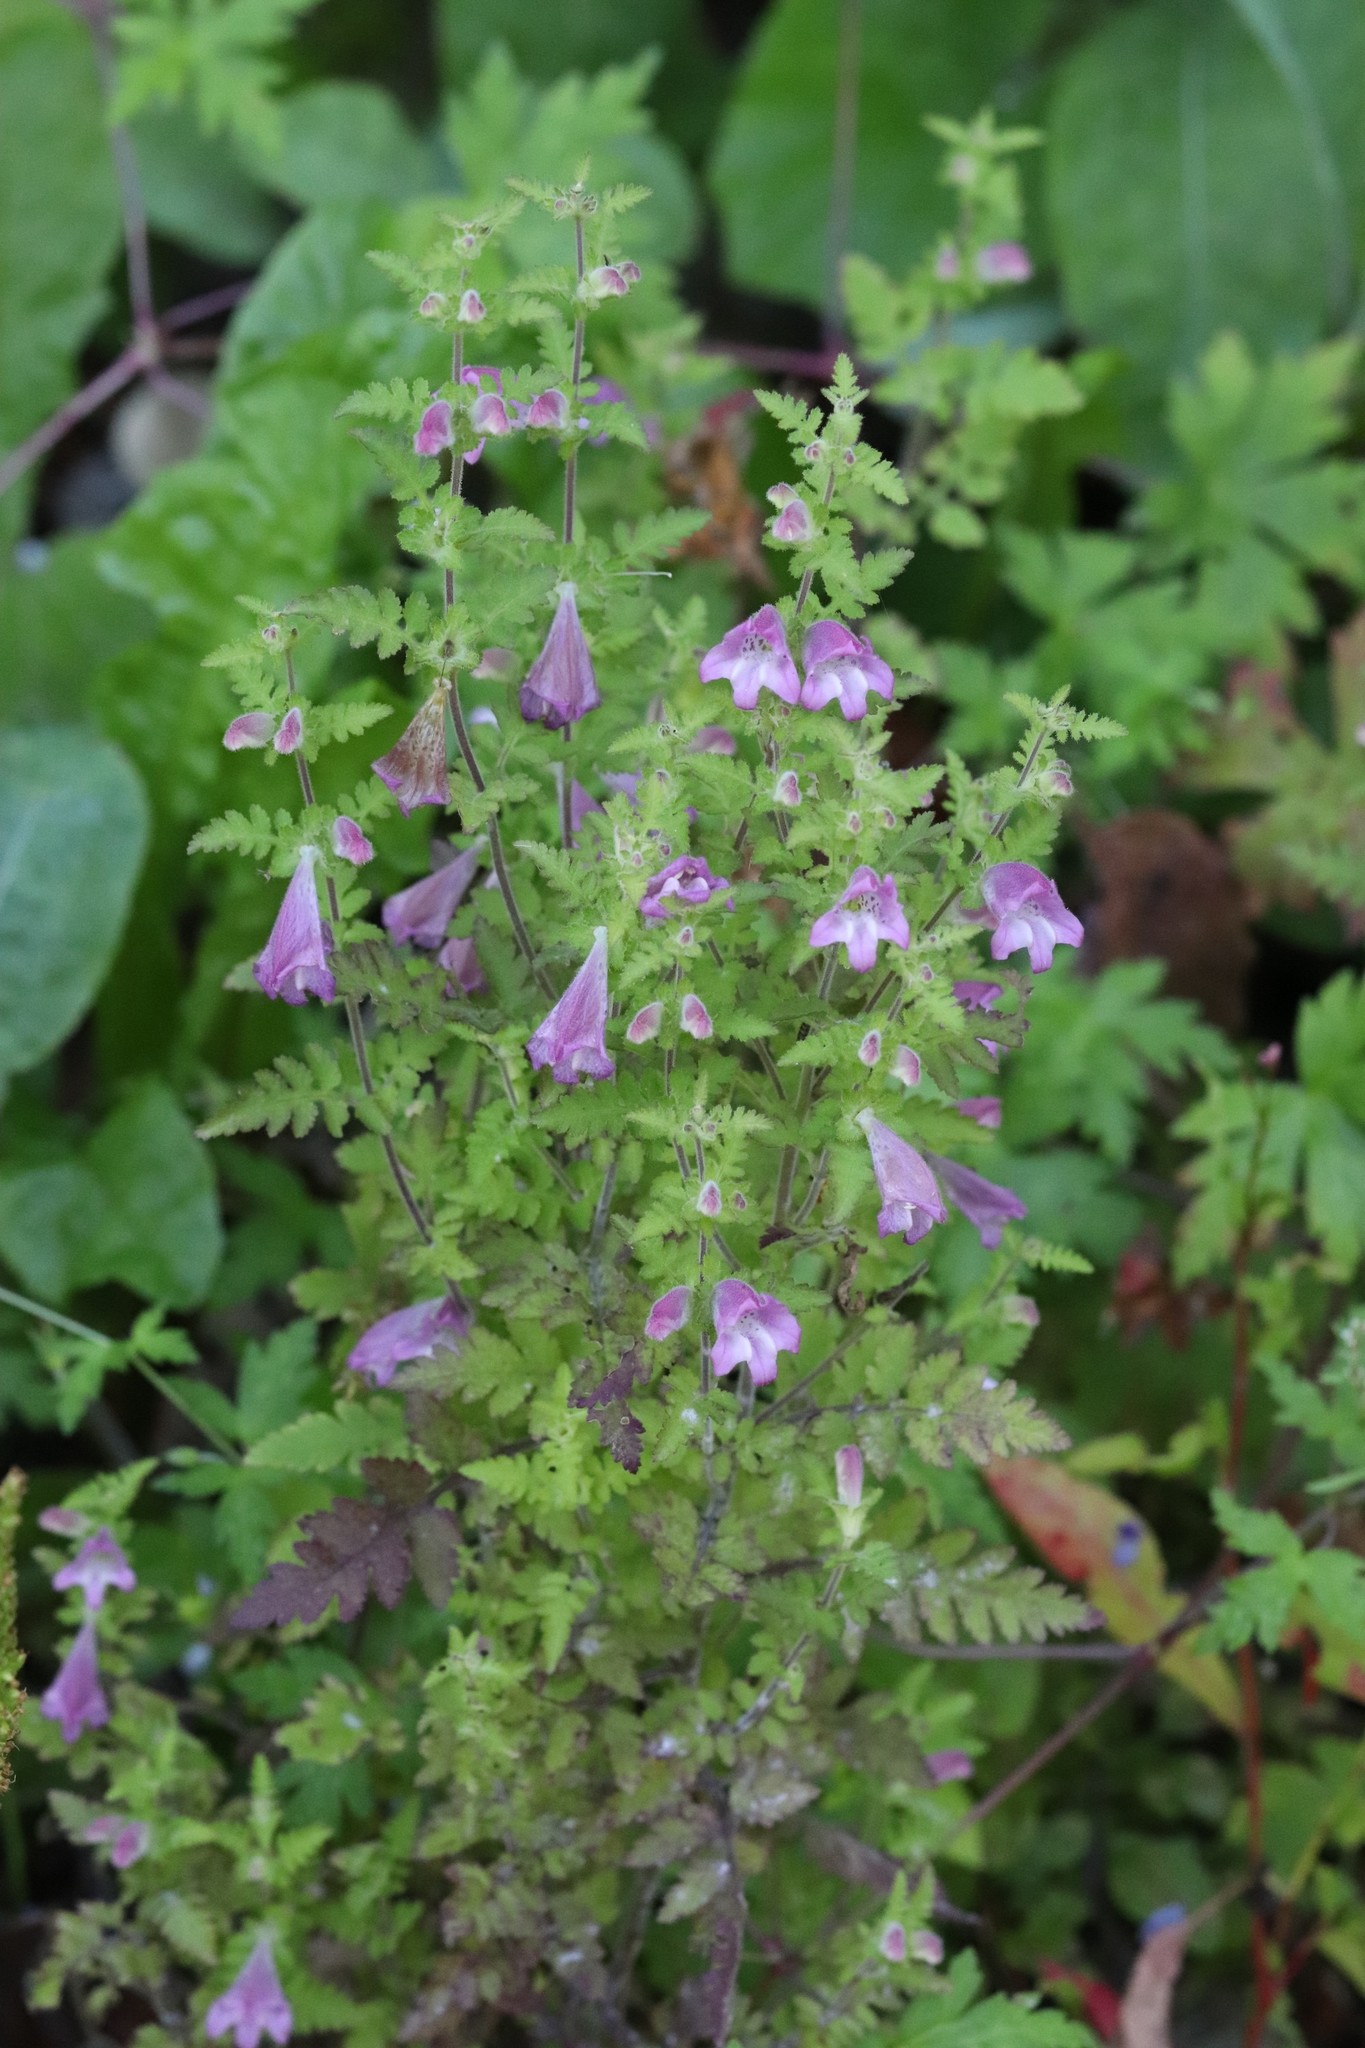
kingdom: Plantae
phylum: Tracheophyta
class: Magnoliopsida
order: Lamiales
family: Orobanchaceae
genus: Phtheirospermum
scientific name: Phtheirospermum japonicum
